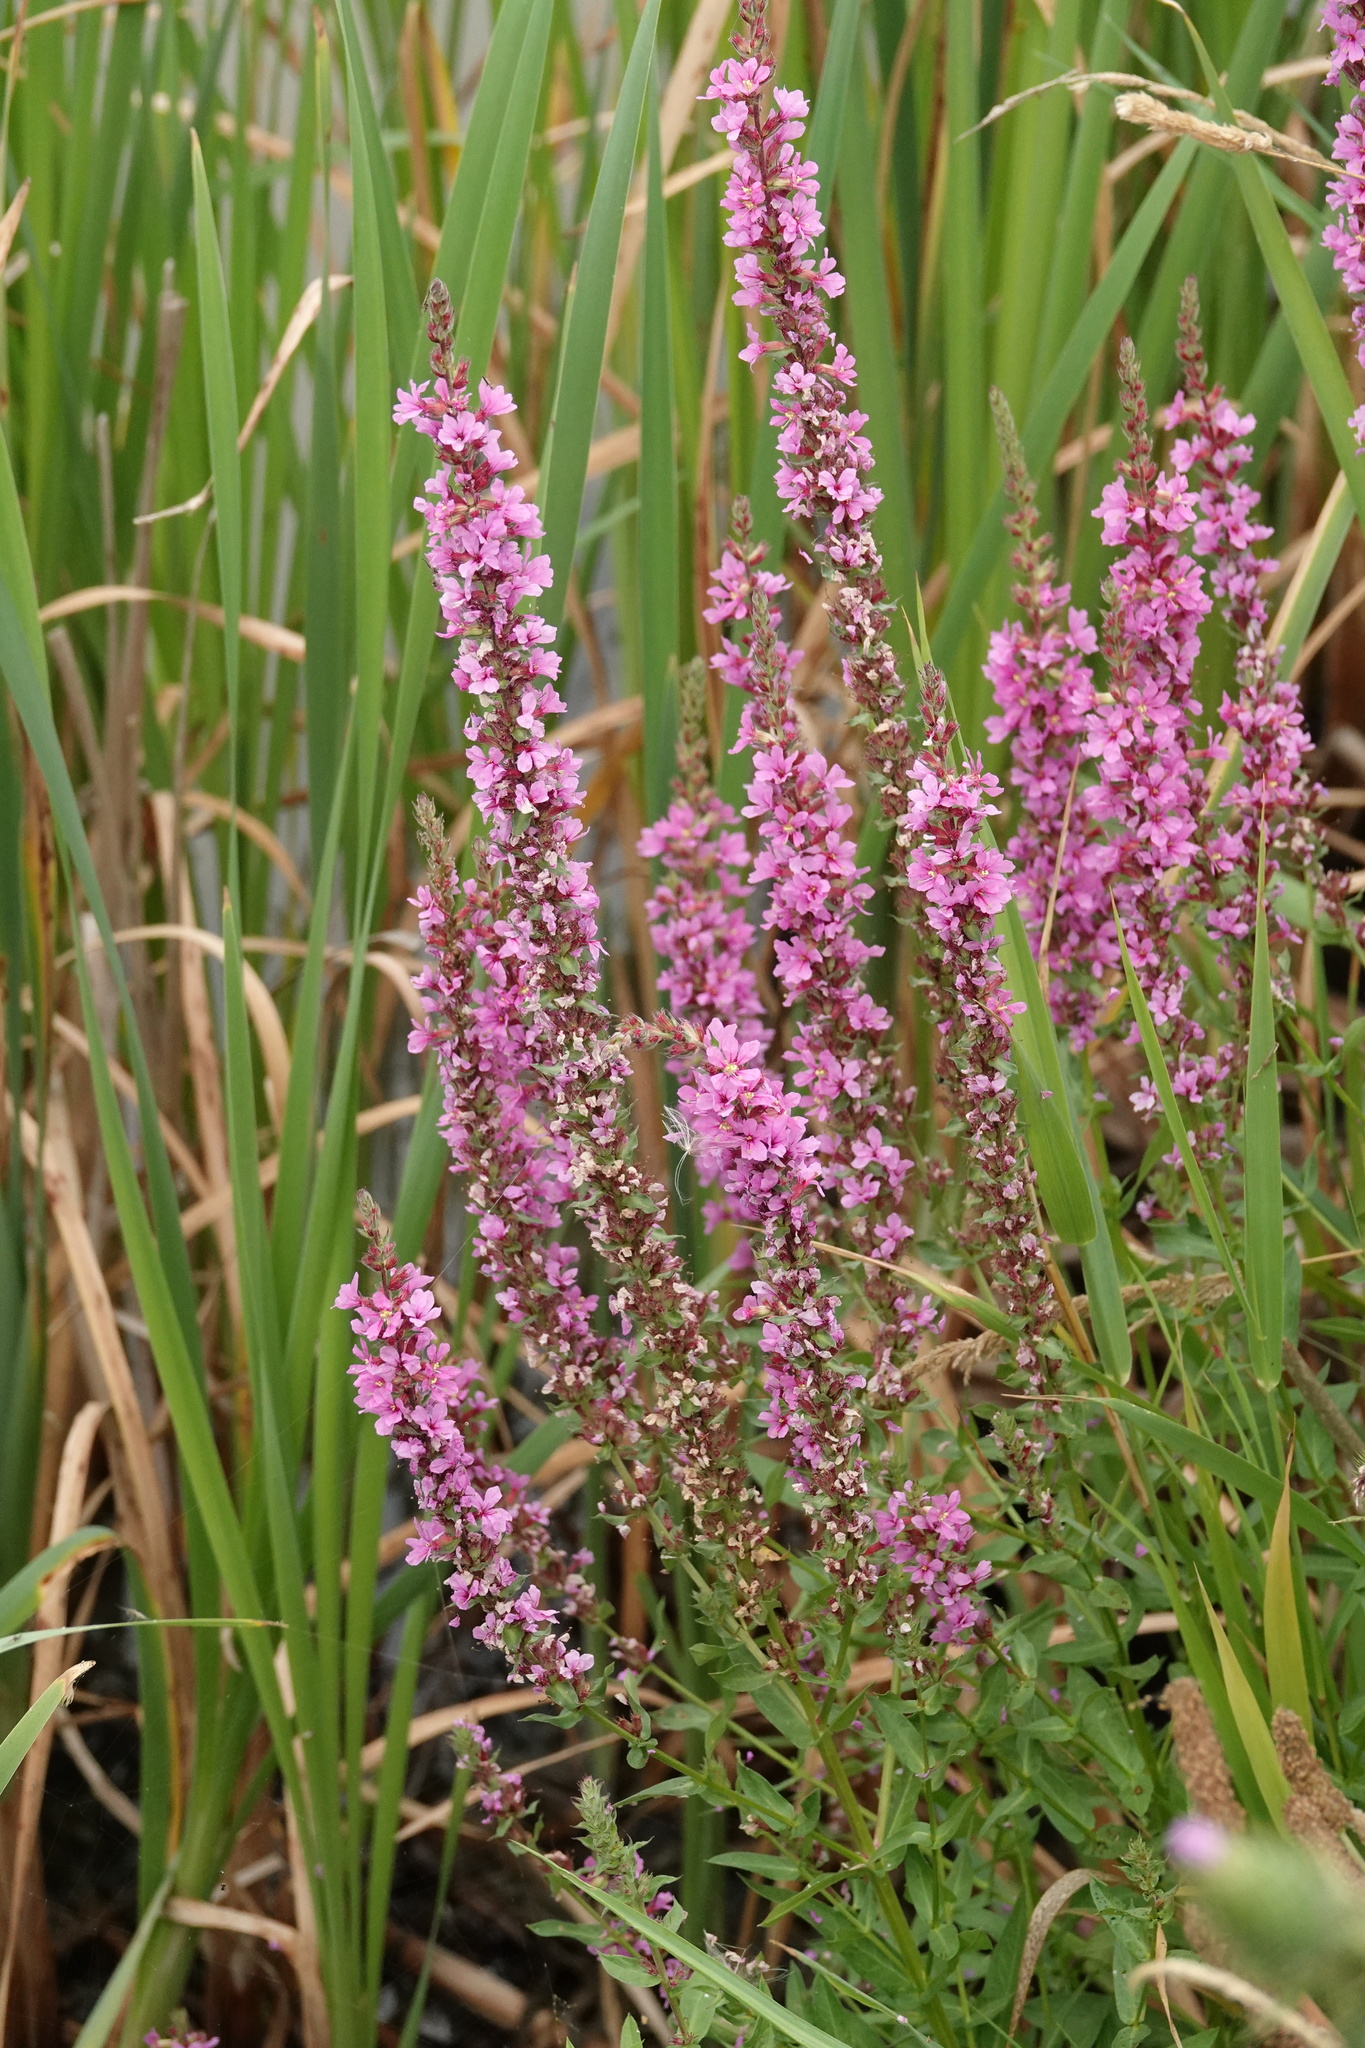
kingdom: Plantae
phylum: Tracheophyta
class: Magnoliopsida
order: Myrtales
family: Lythraceae
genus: Lythrum
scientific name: Lythrum salicaria
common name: Purple loosestrife
